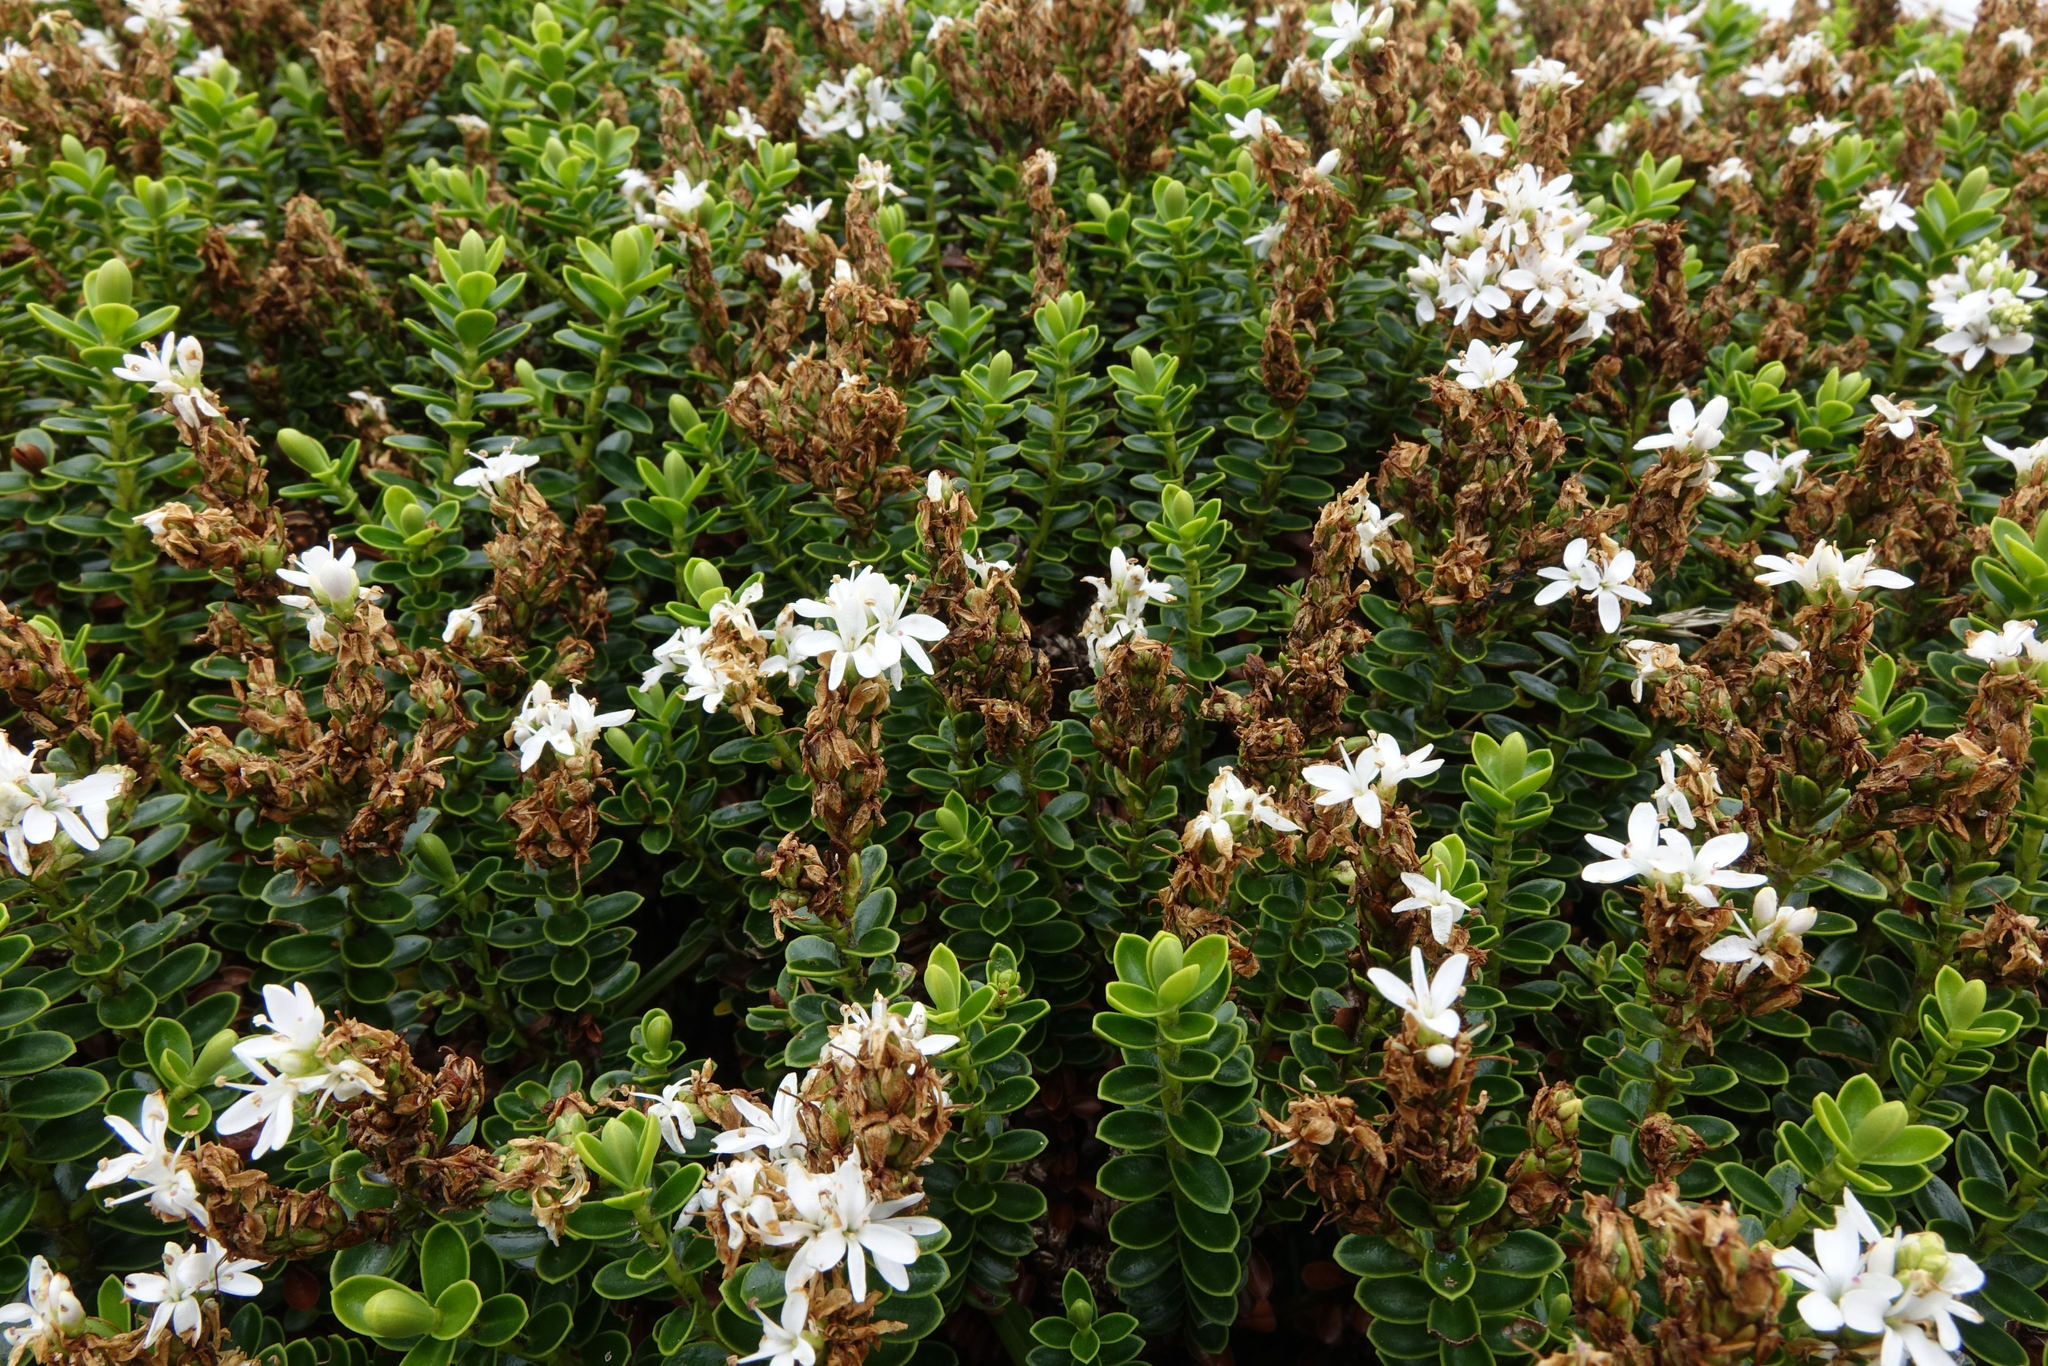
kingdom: Plantae
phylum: Tracheophyta
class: Magnoliopsida
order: Lamiales
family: Plantaginaceae
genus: Veronica
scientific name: Veronica odora
